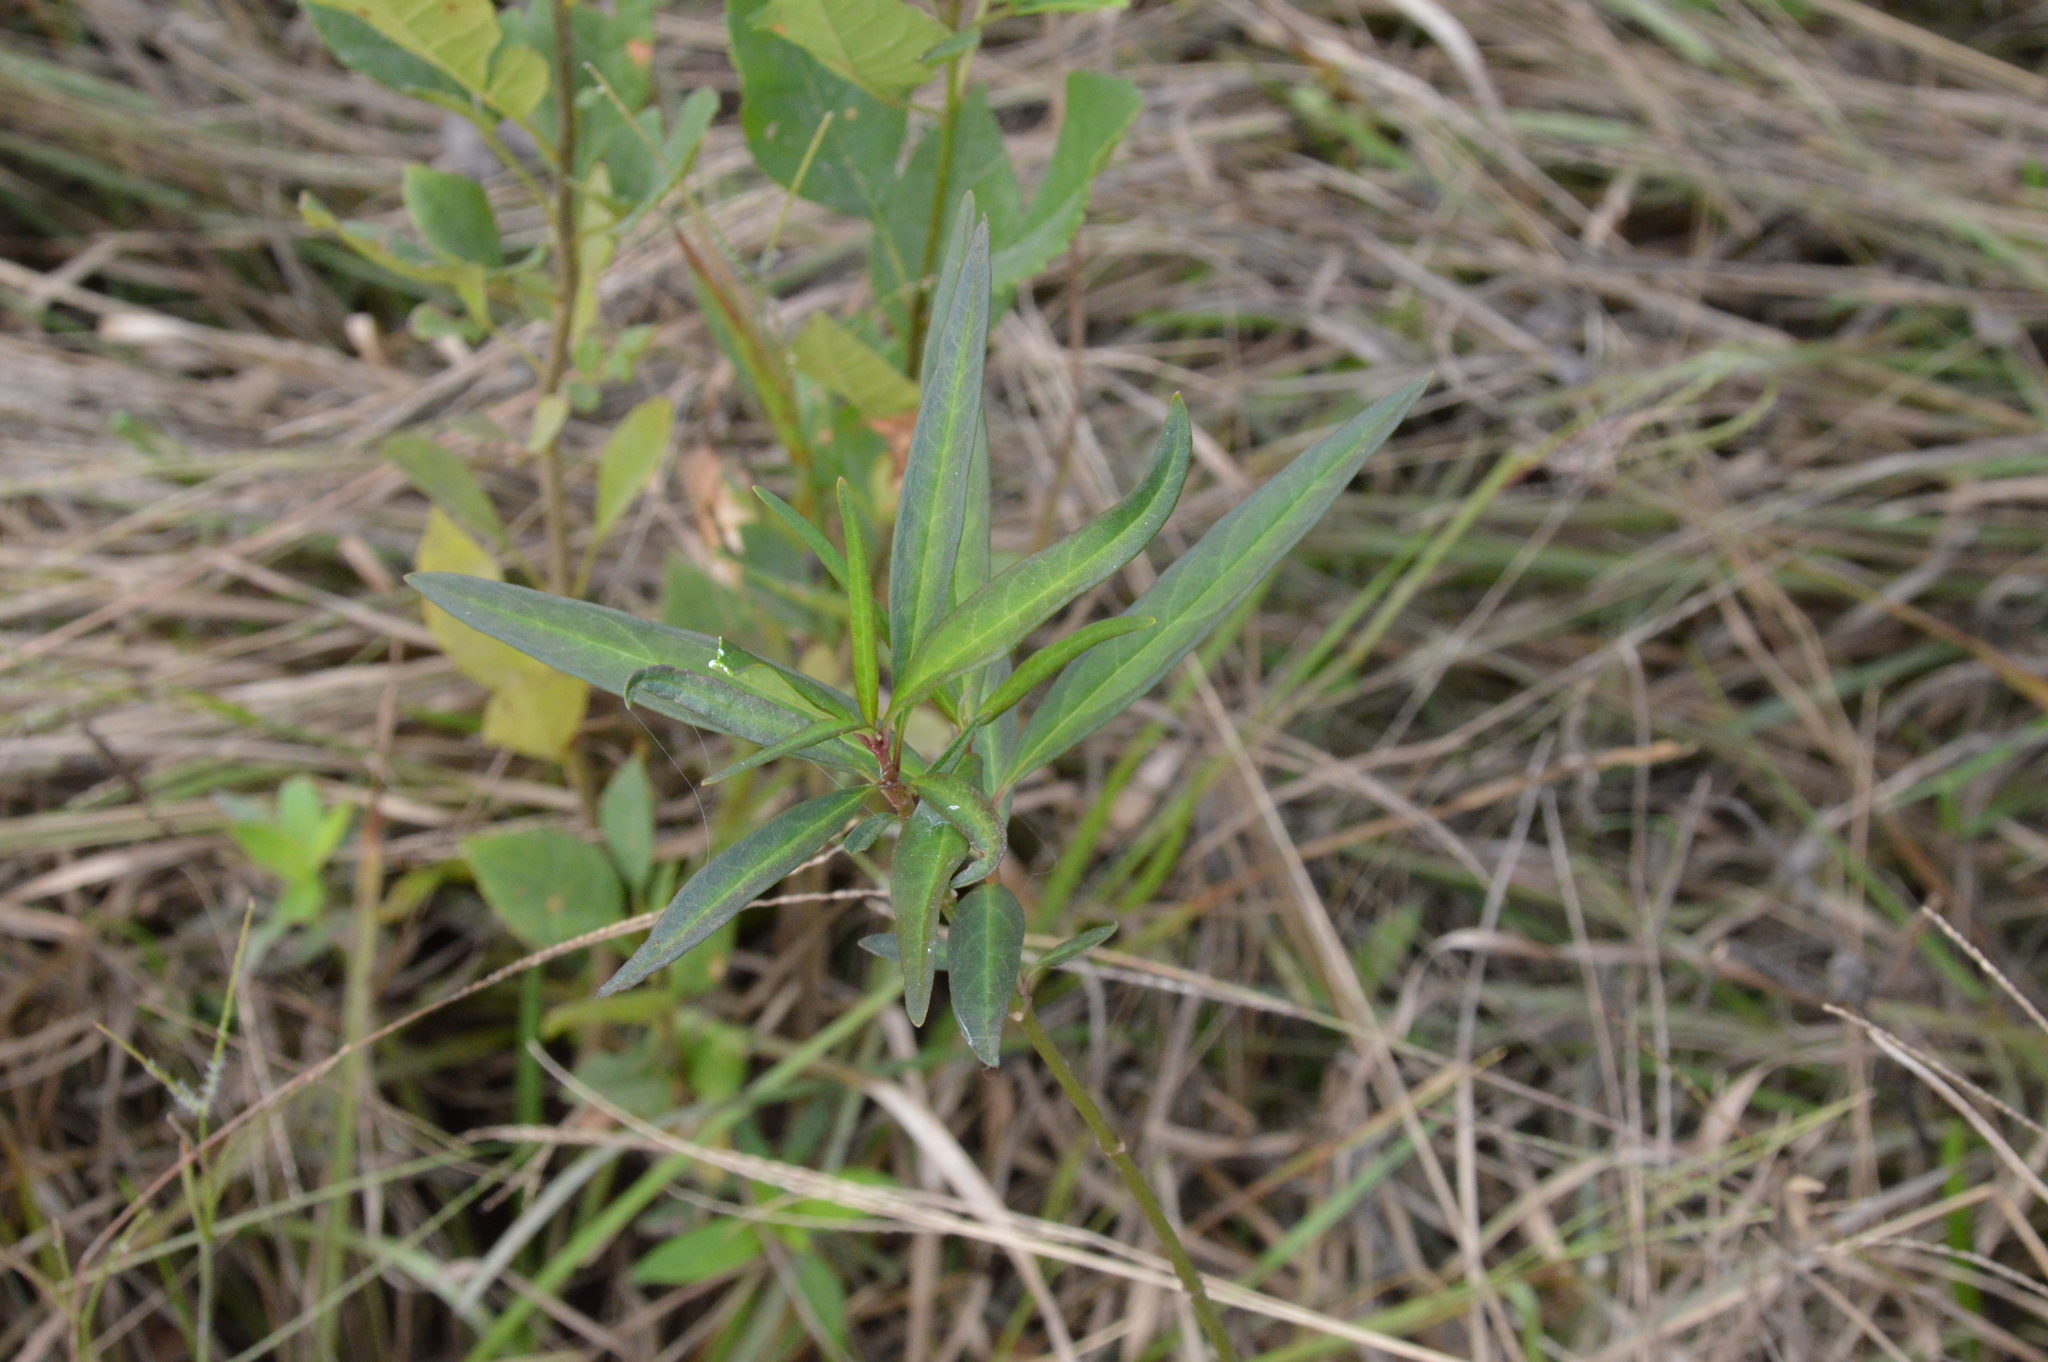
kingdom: Plantae
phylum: Tracheophyta
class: Magnoliopsida
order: Gentianales
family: Apocynaceae
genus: Asclepias
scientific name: Asclepias perennis
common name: Smooth-seed milkweed
